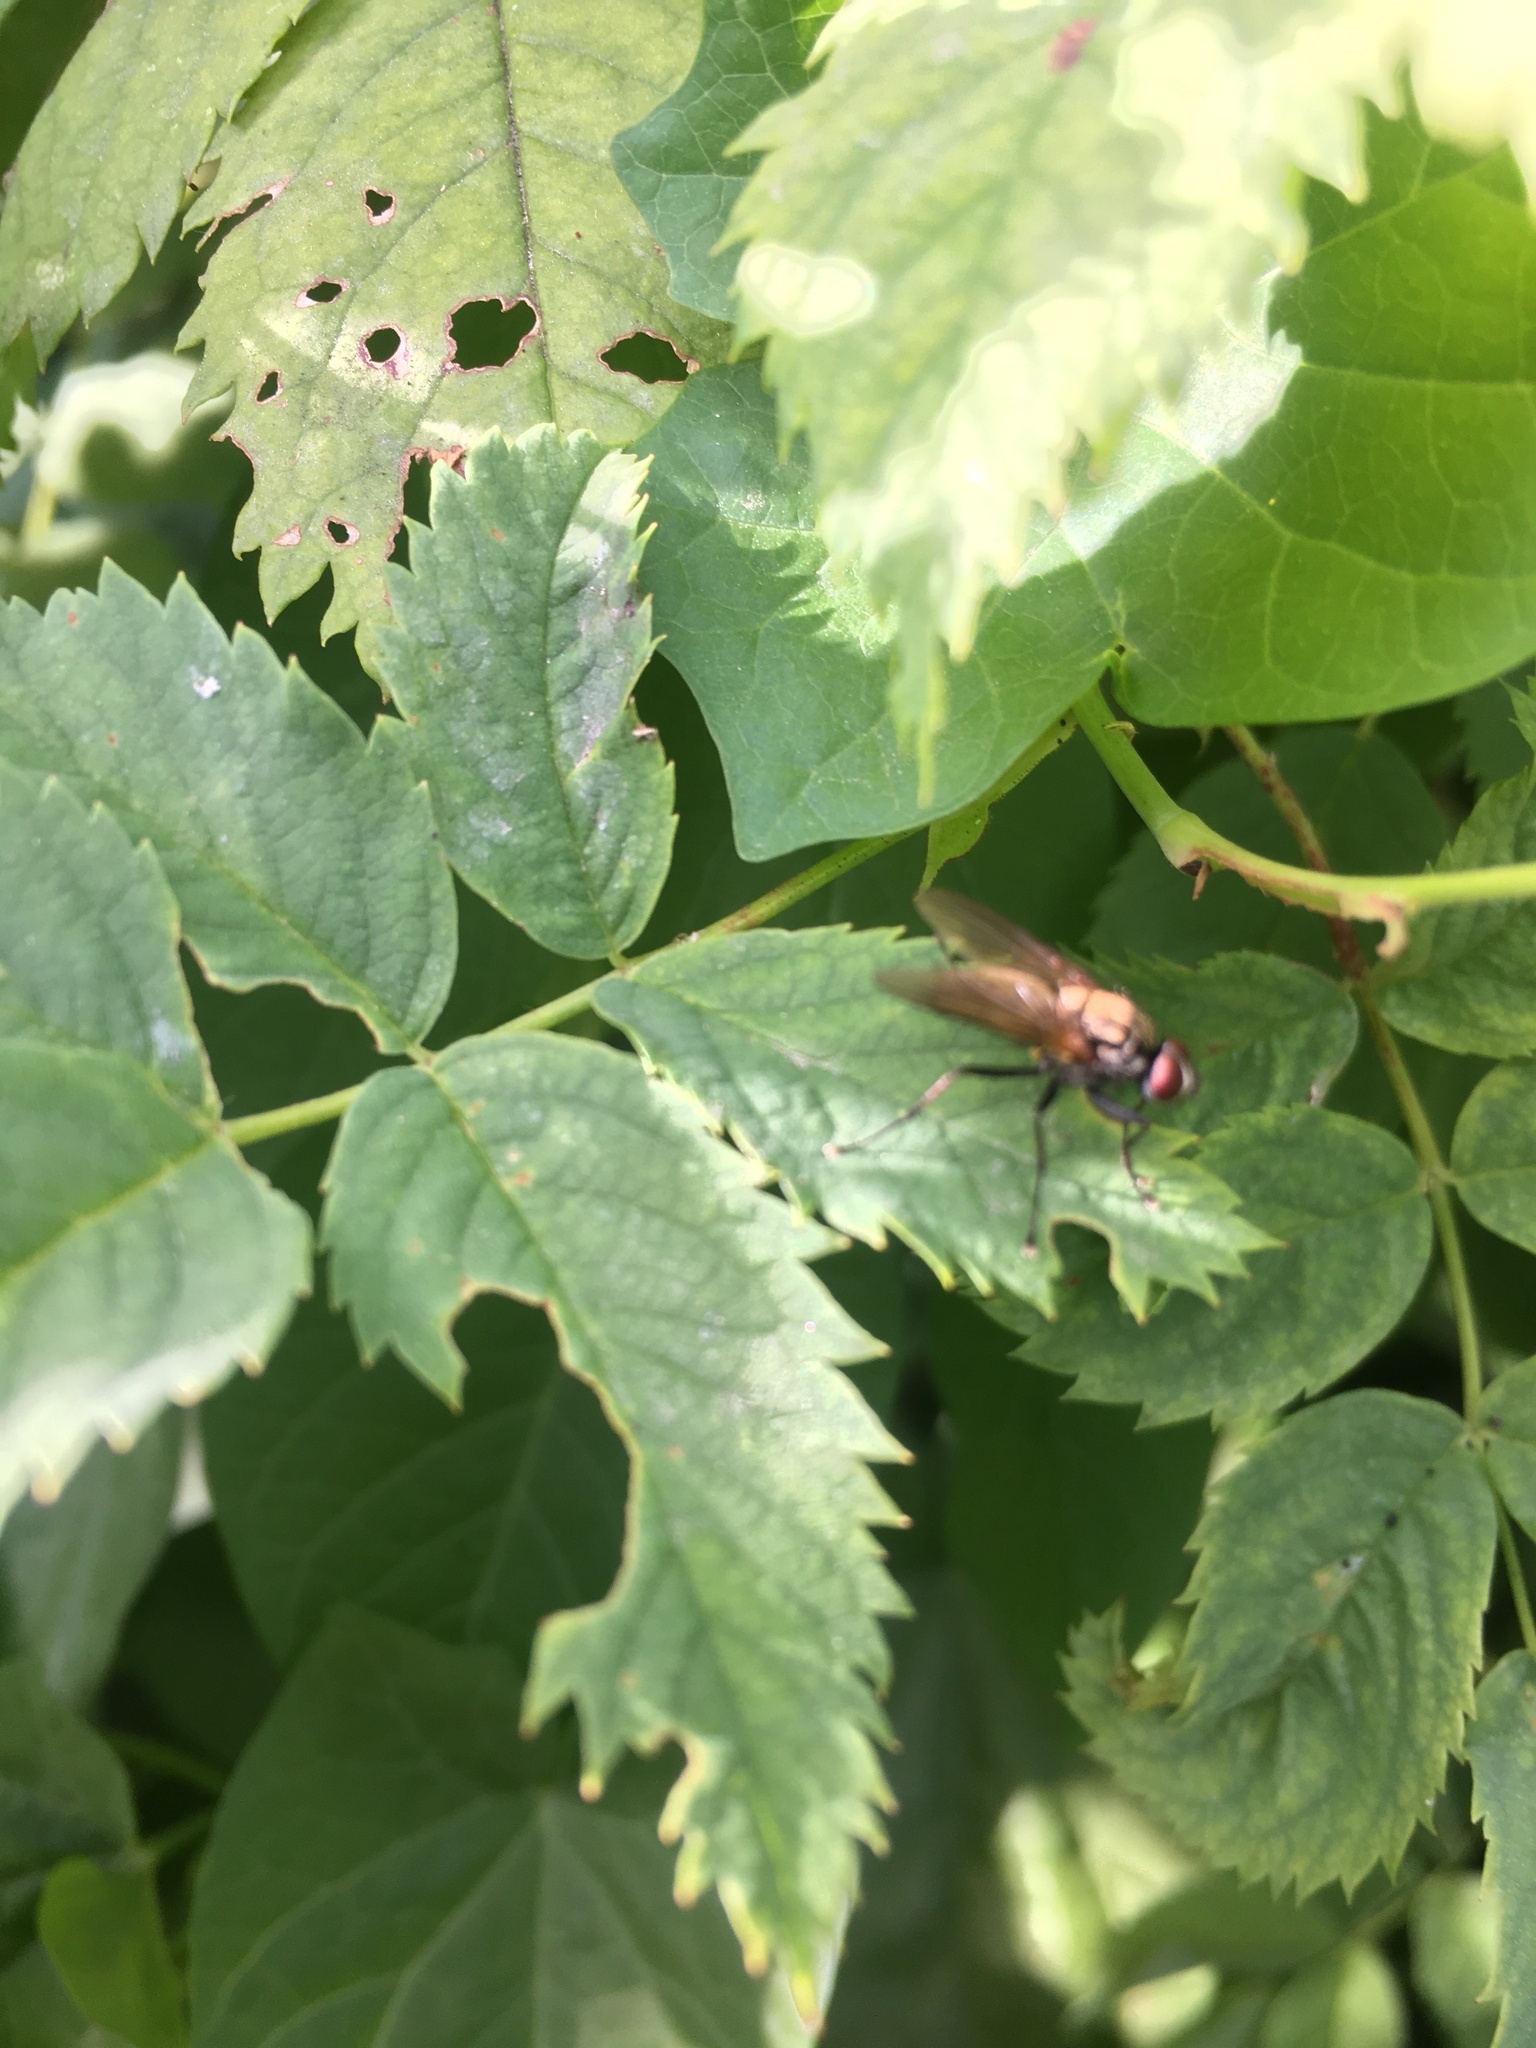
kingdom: Animalia
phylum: Arthropoda
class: Insecta
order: Diptera
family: Anthomyiidae
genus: Hydrophoria
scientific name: Hydrophoria lancifer
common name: Root-maggot fly
